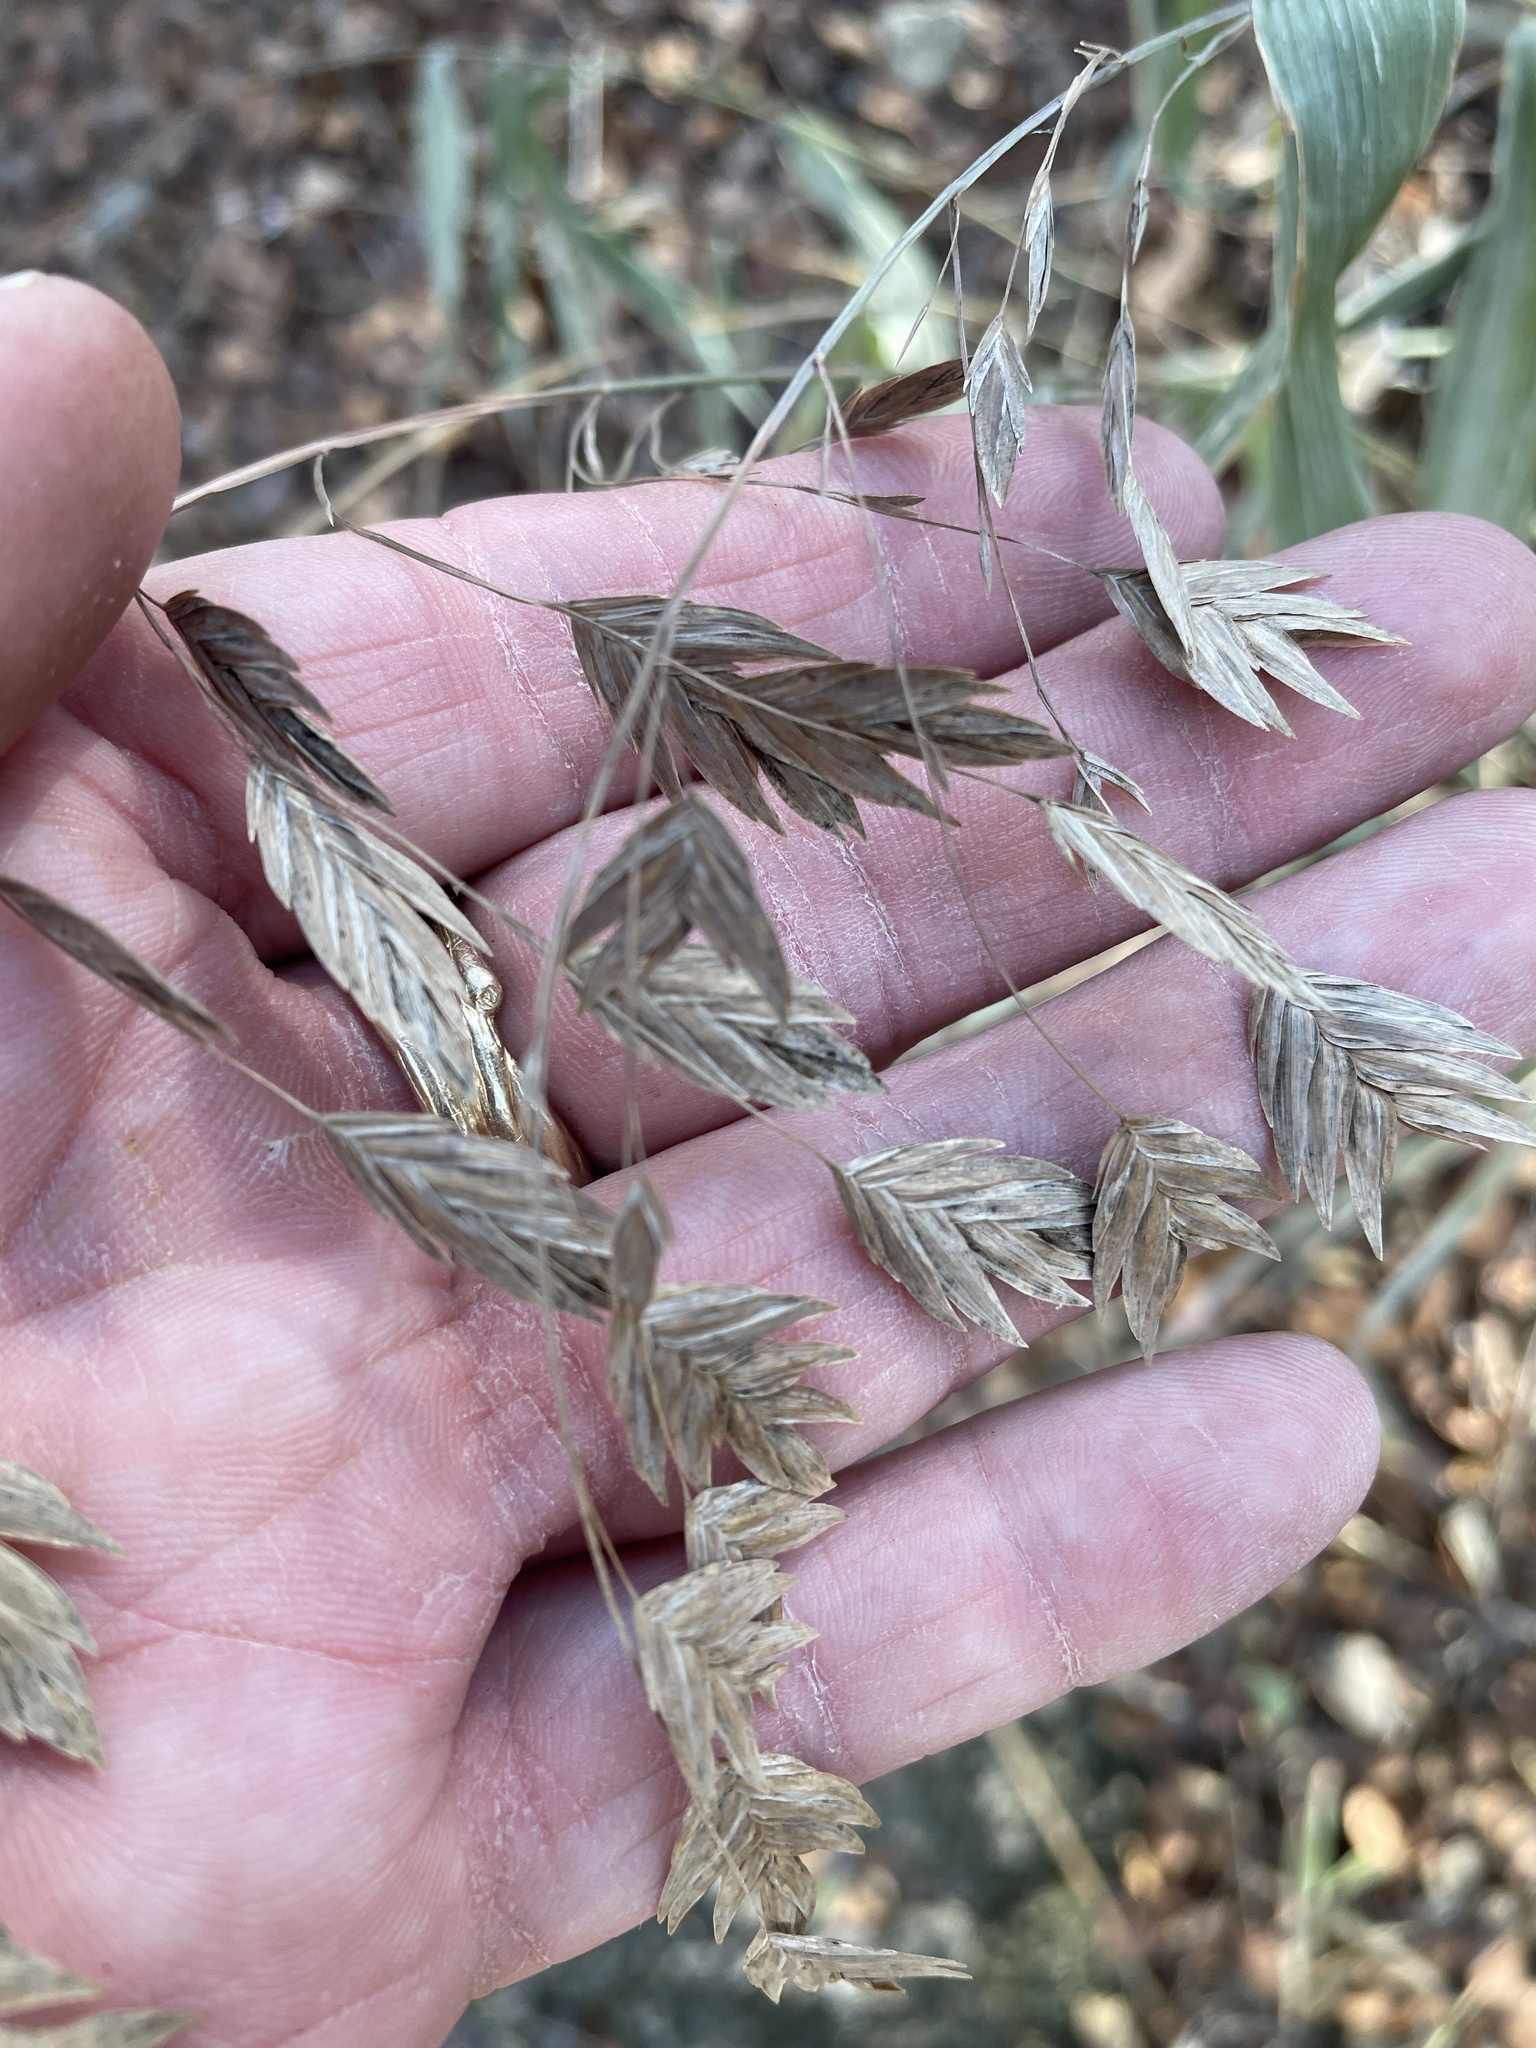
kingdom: Plantae
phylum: Tracheophyta
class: Liliopsida
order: Poales
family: Poaceae
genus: Chasmanthium
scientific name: Chasmanthium latifolium
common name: Broad-leaved chasmanthium
